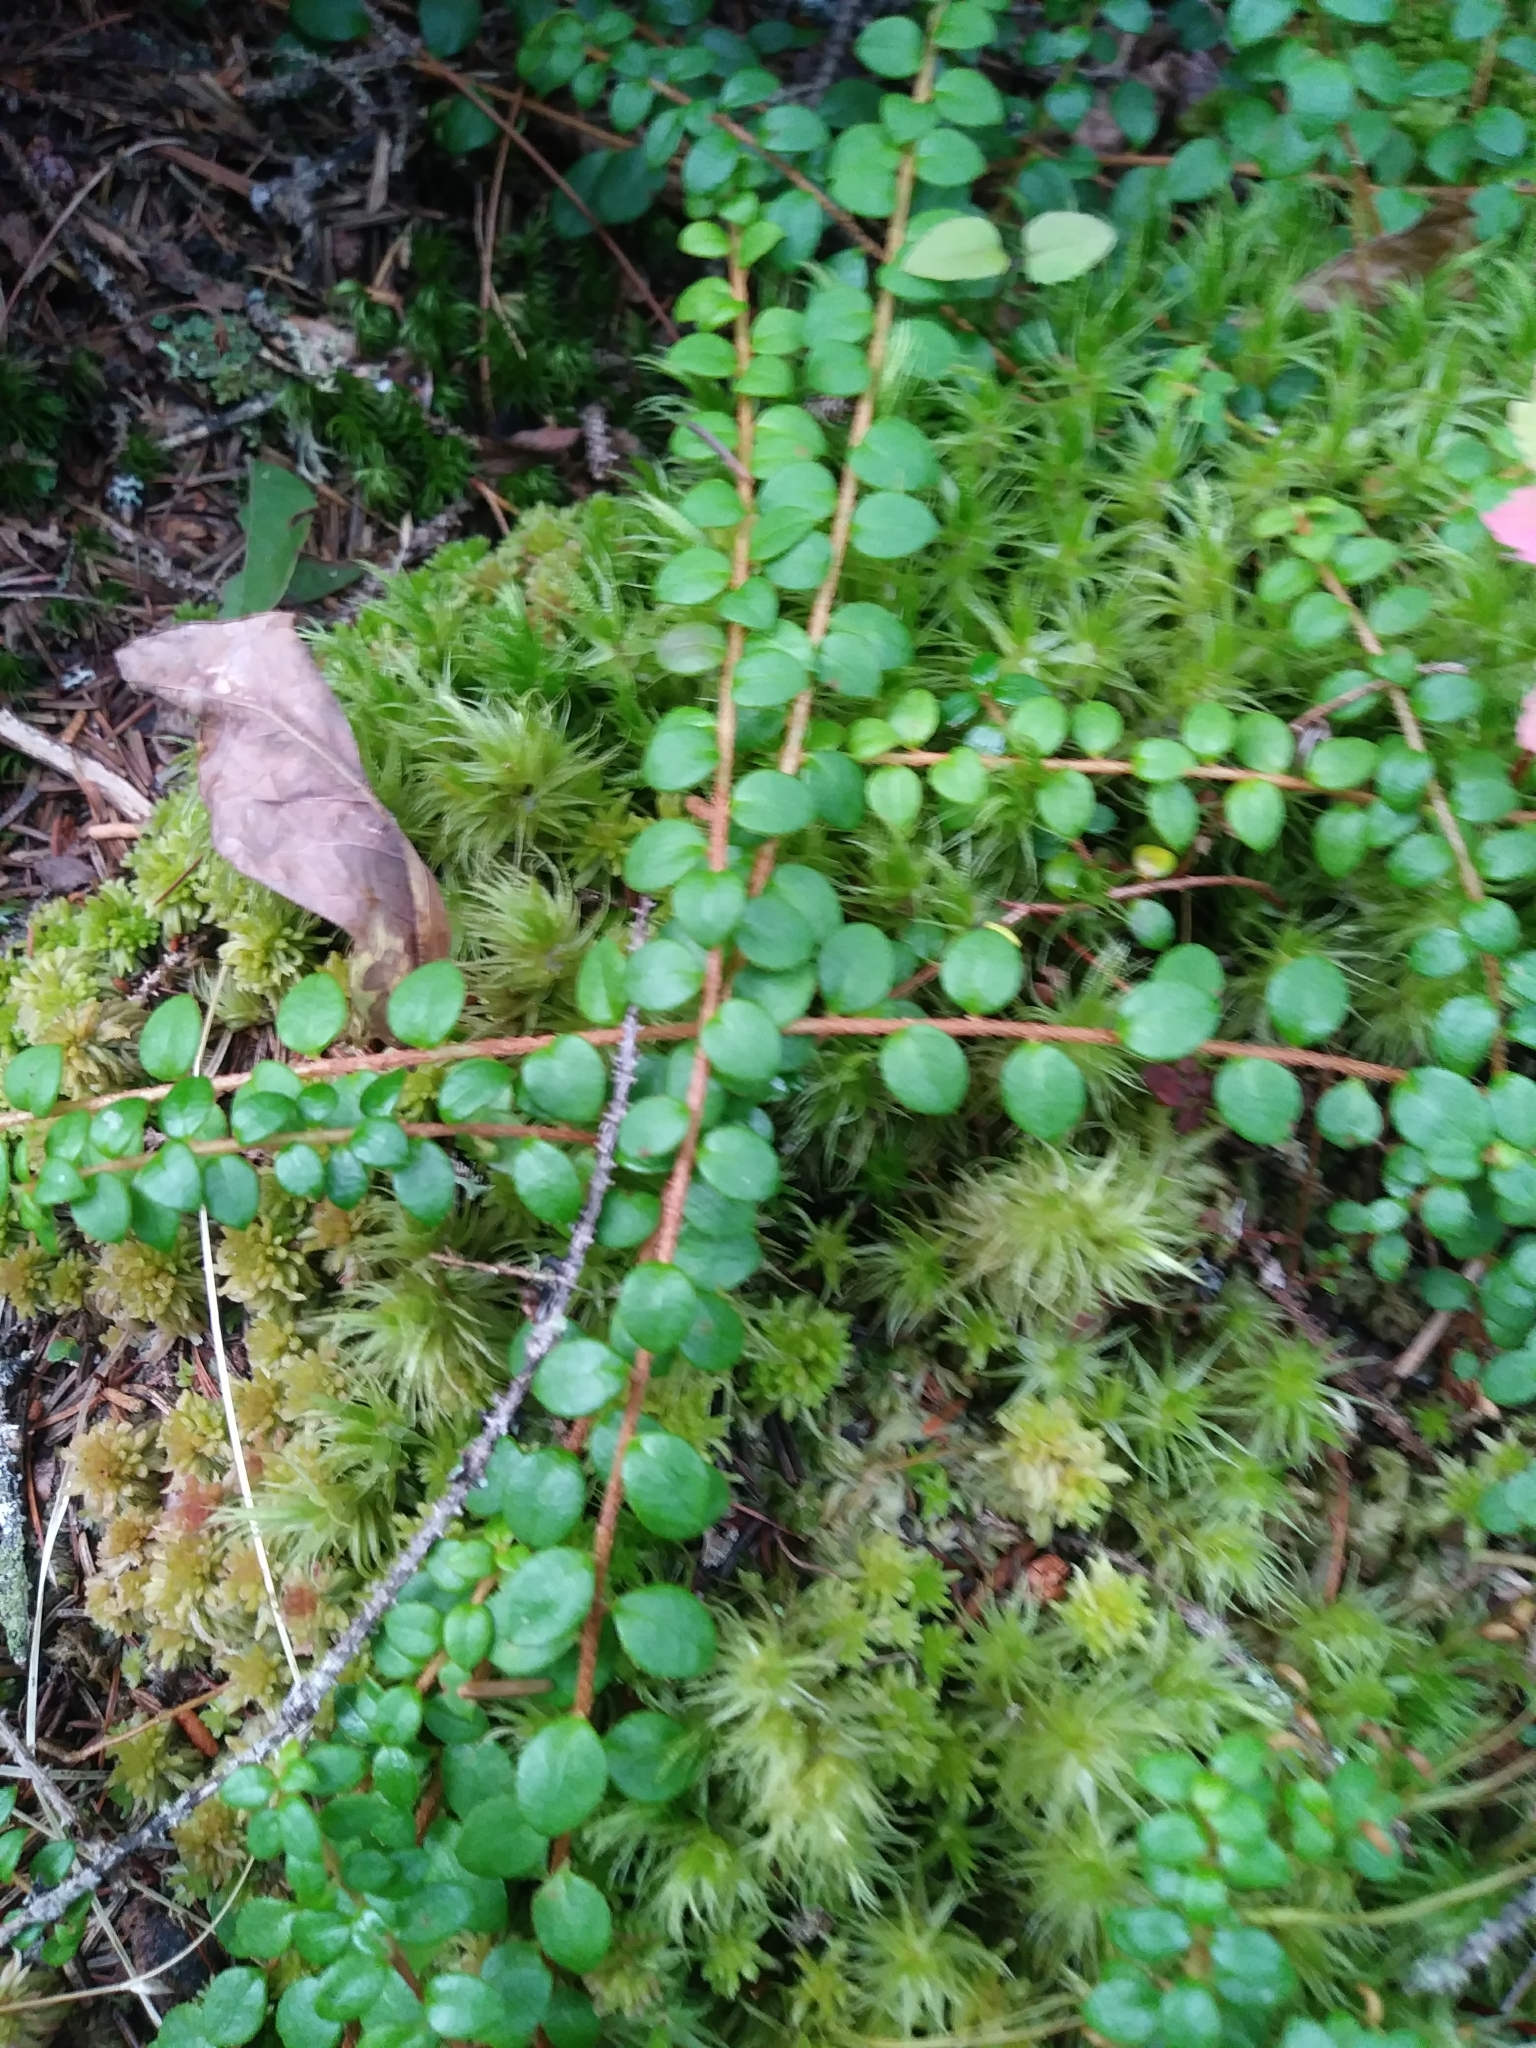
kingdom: Plantae
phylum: Tracheophyta
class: Magnoliopsida
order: Ericales
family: Ericaceae
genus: Gaultheria
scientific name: Gaultheria hispidula
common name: Cancer wintergreen
